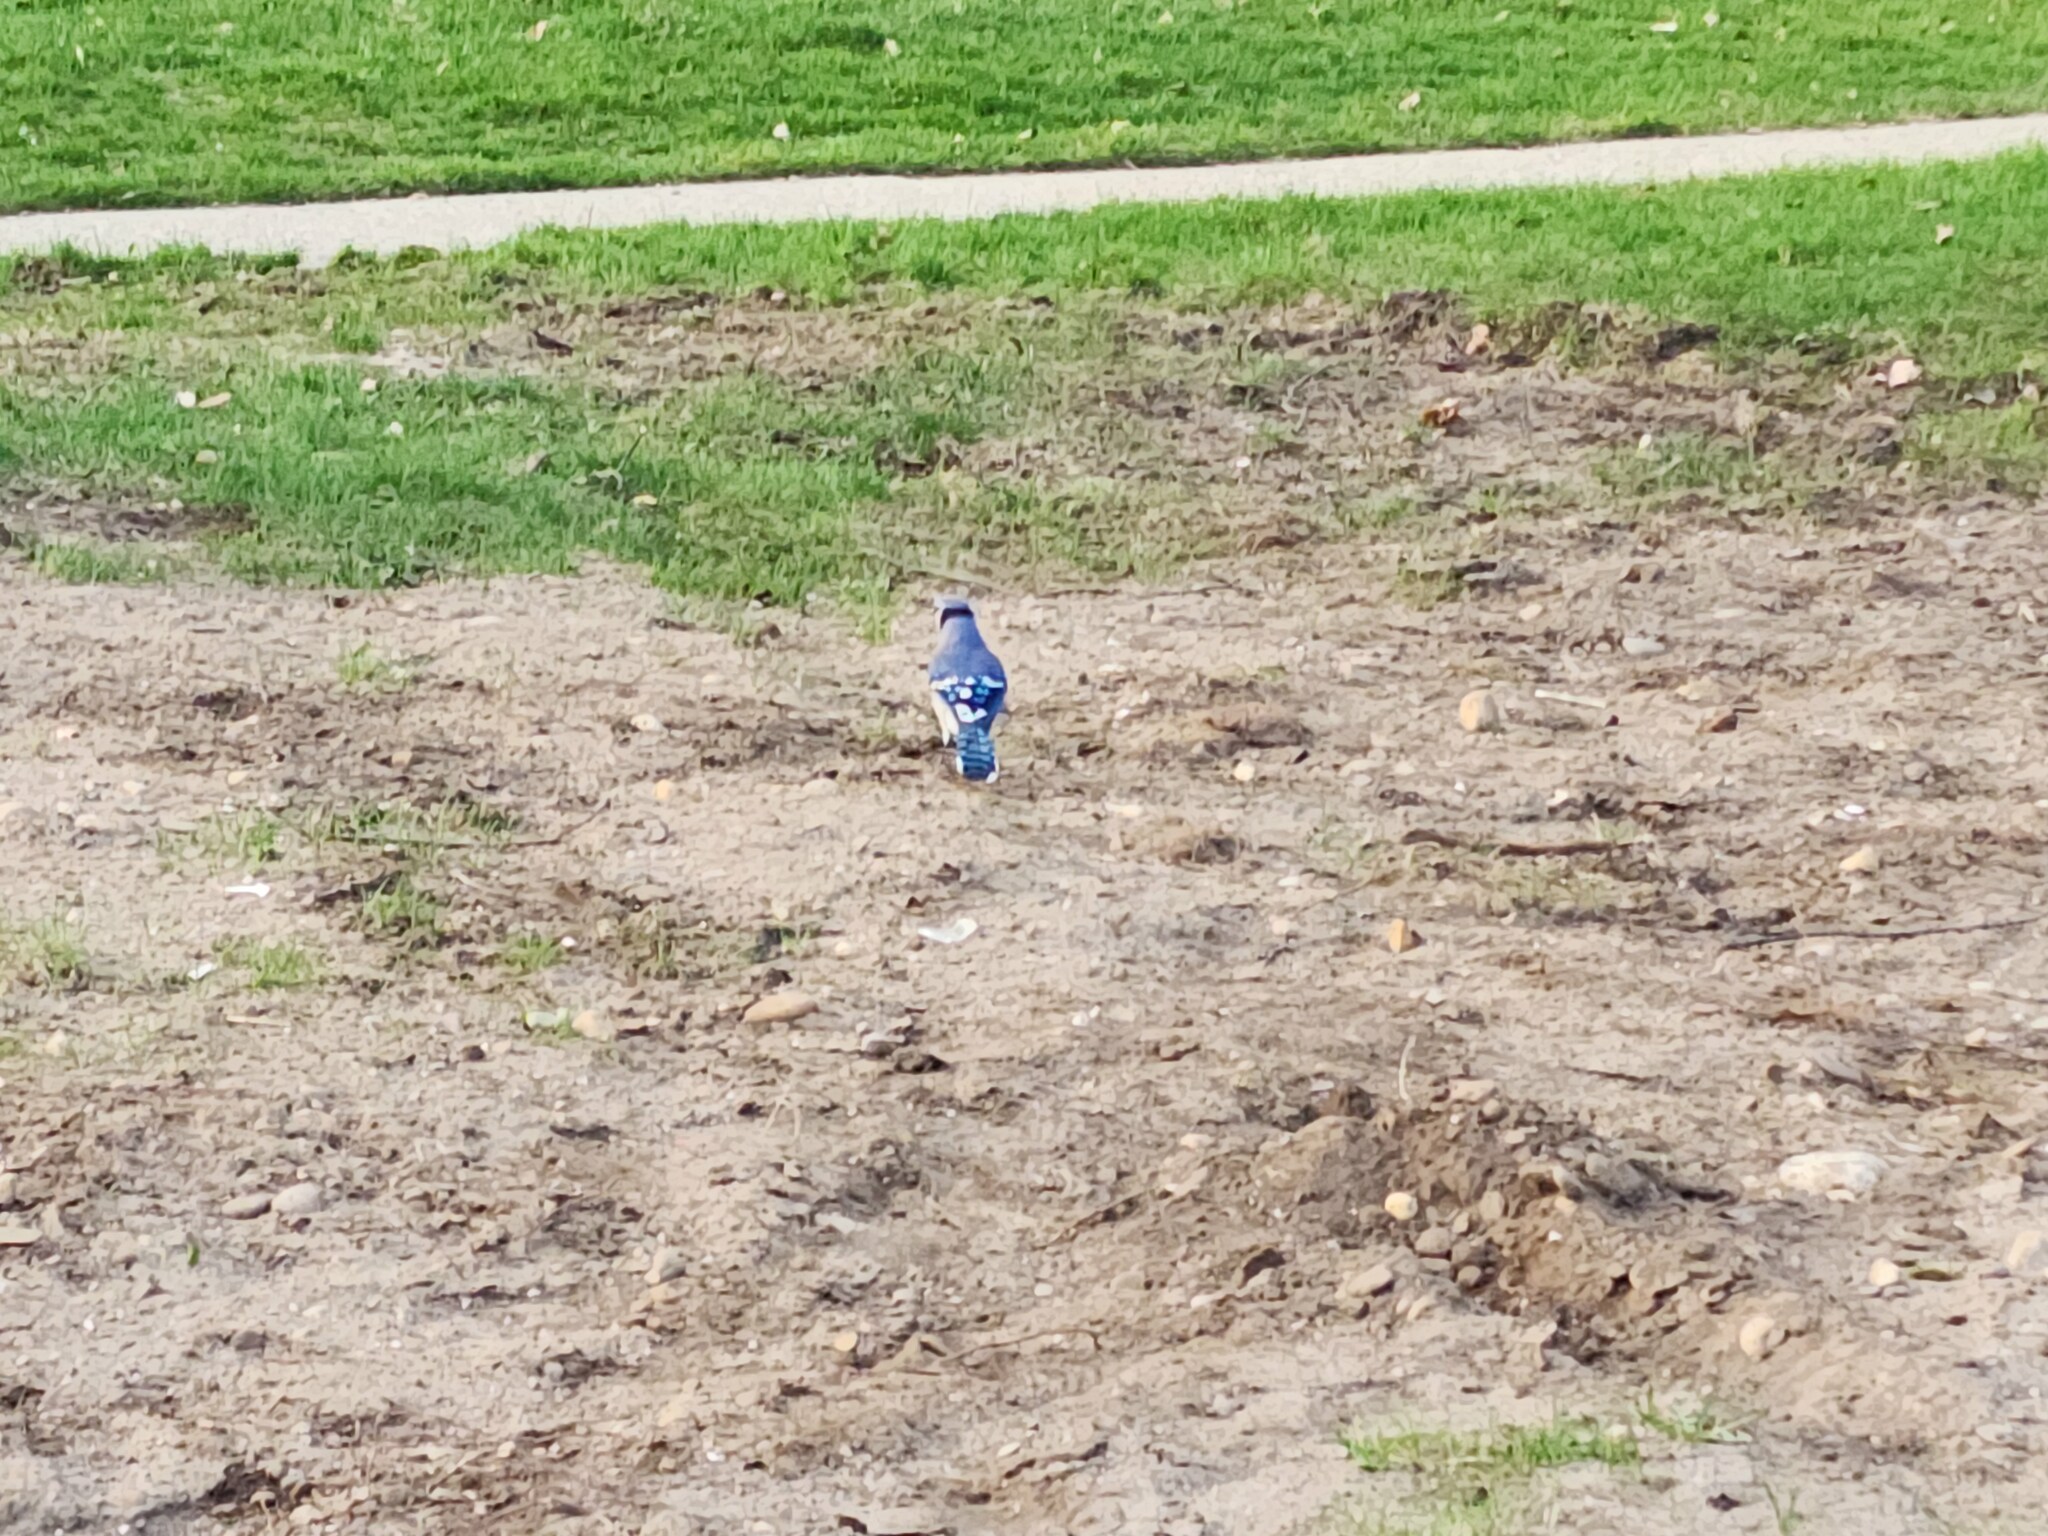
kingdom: Animalia
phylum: Chordata
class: Aves
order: Passeriformes
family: Corvidae
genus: Cyanocitta
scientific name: Cyanocitta cristata
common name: Blue jay
